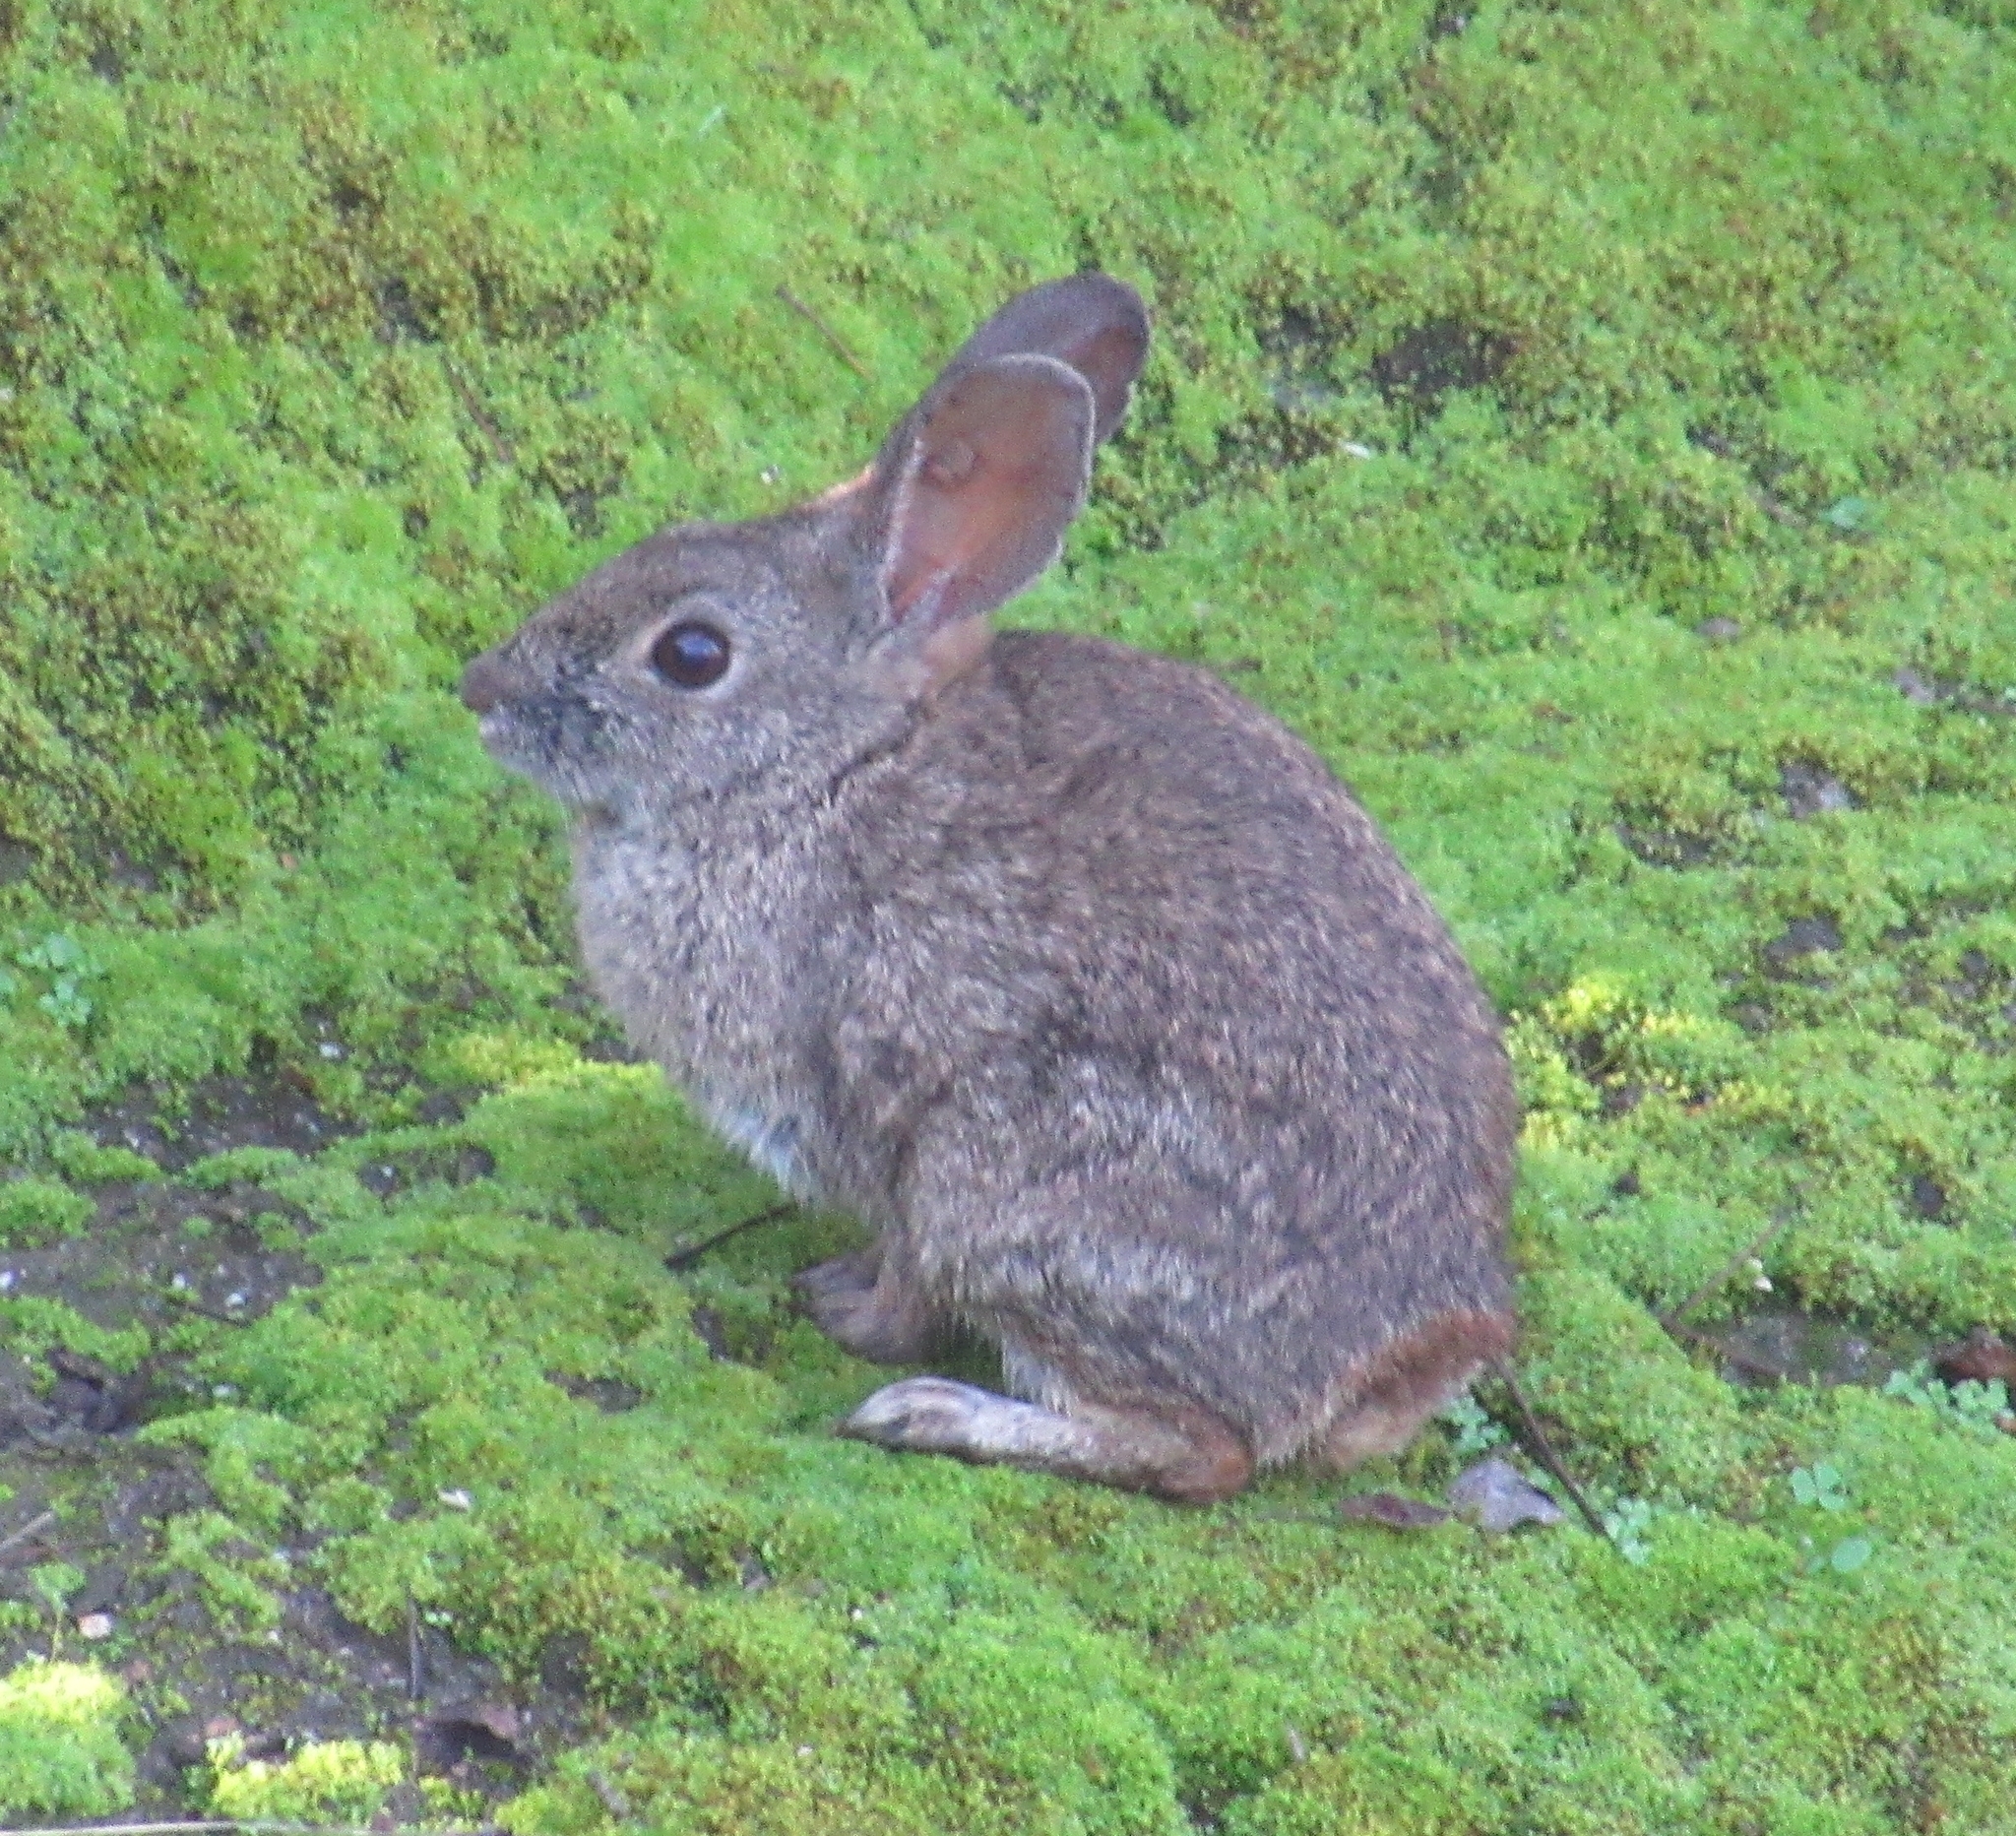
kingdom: Animalia
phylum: Chordata
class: Mammalia
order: Lagomorpha
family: Leporidae
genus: Sylvilagus
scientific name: Sylvilagus bachmani
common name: Brush rabbit
